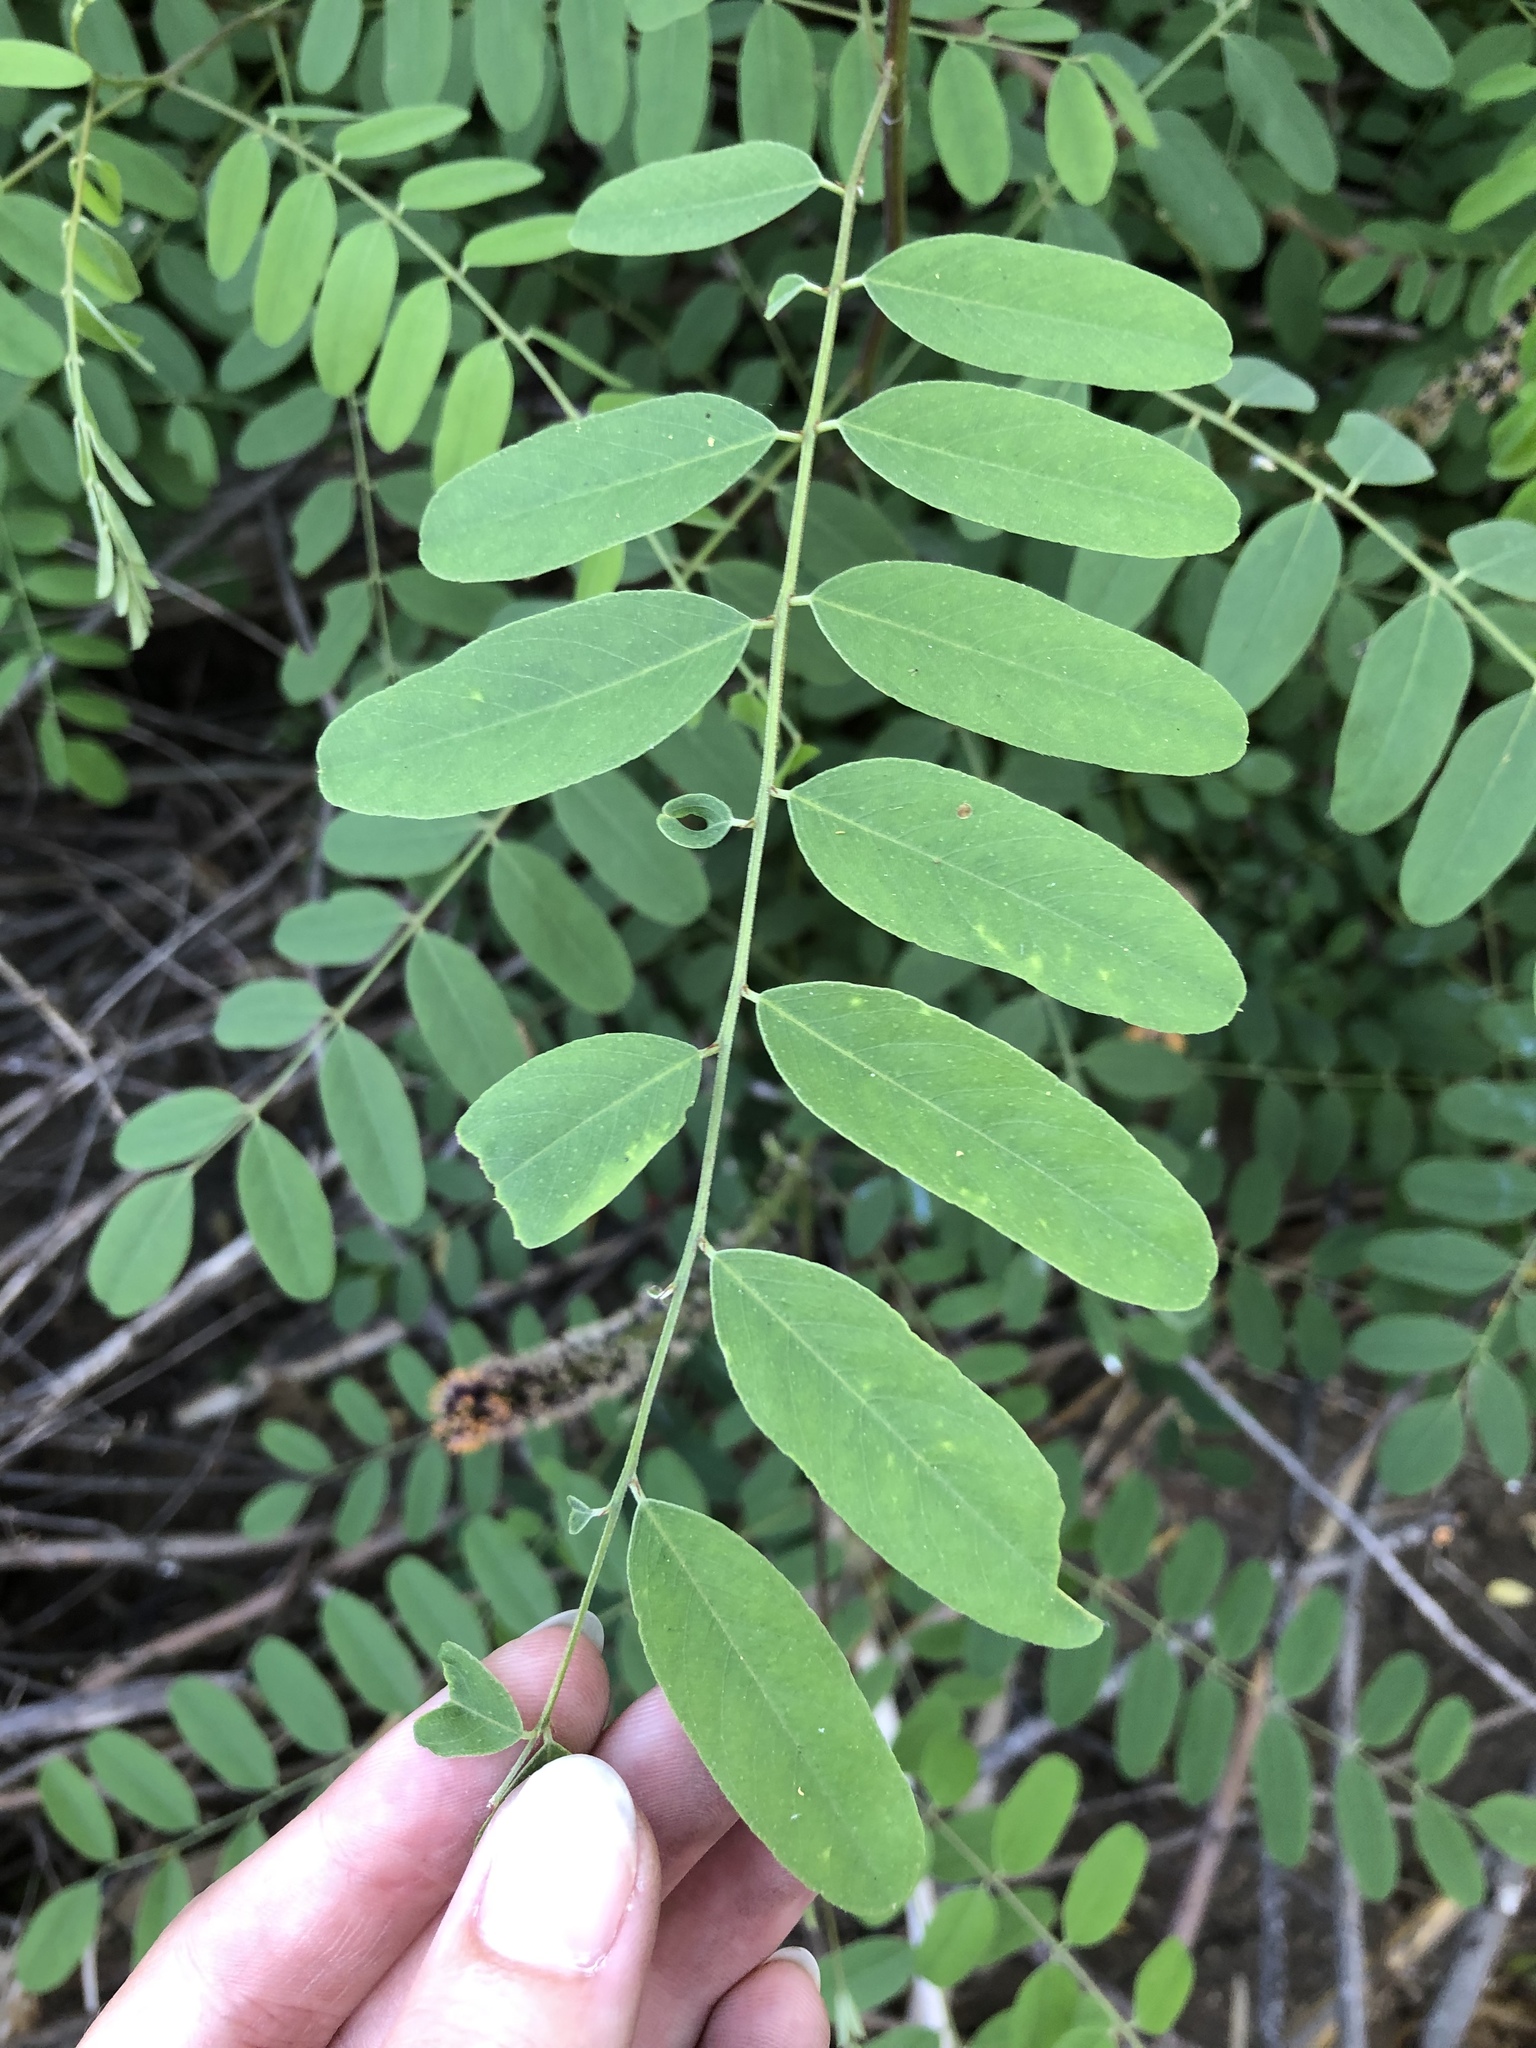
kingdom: Plantae
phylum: Tracheophyta
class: Magnoliopsida
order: Fabales
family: Fabaceae
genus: Amorpha
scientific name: Amorpha fruticosa
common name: False indigo
